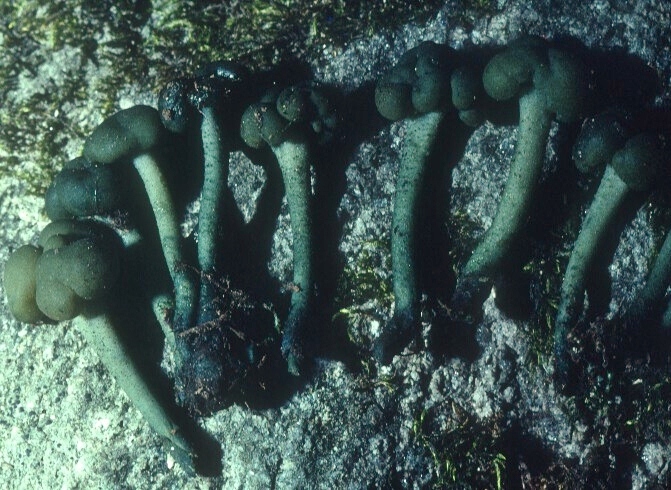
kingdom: Fungi
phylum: Ascomycota
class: Leotiomycetes
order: Leotiales
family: Leotiaceae
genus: Leotia
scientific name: Leotia atrovirens
